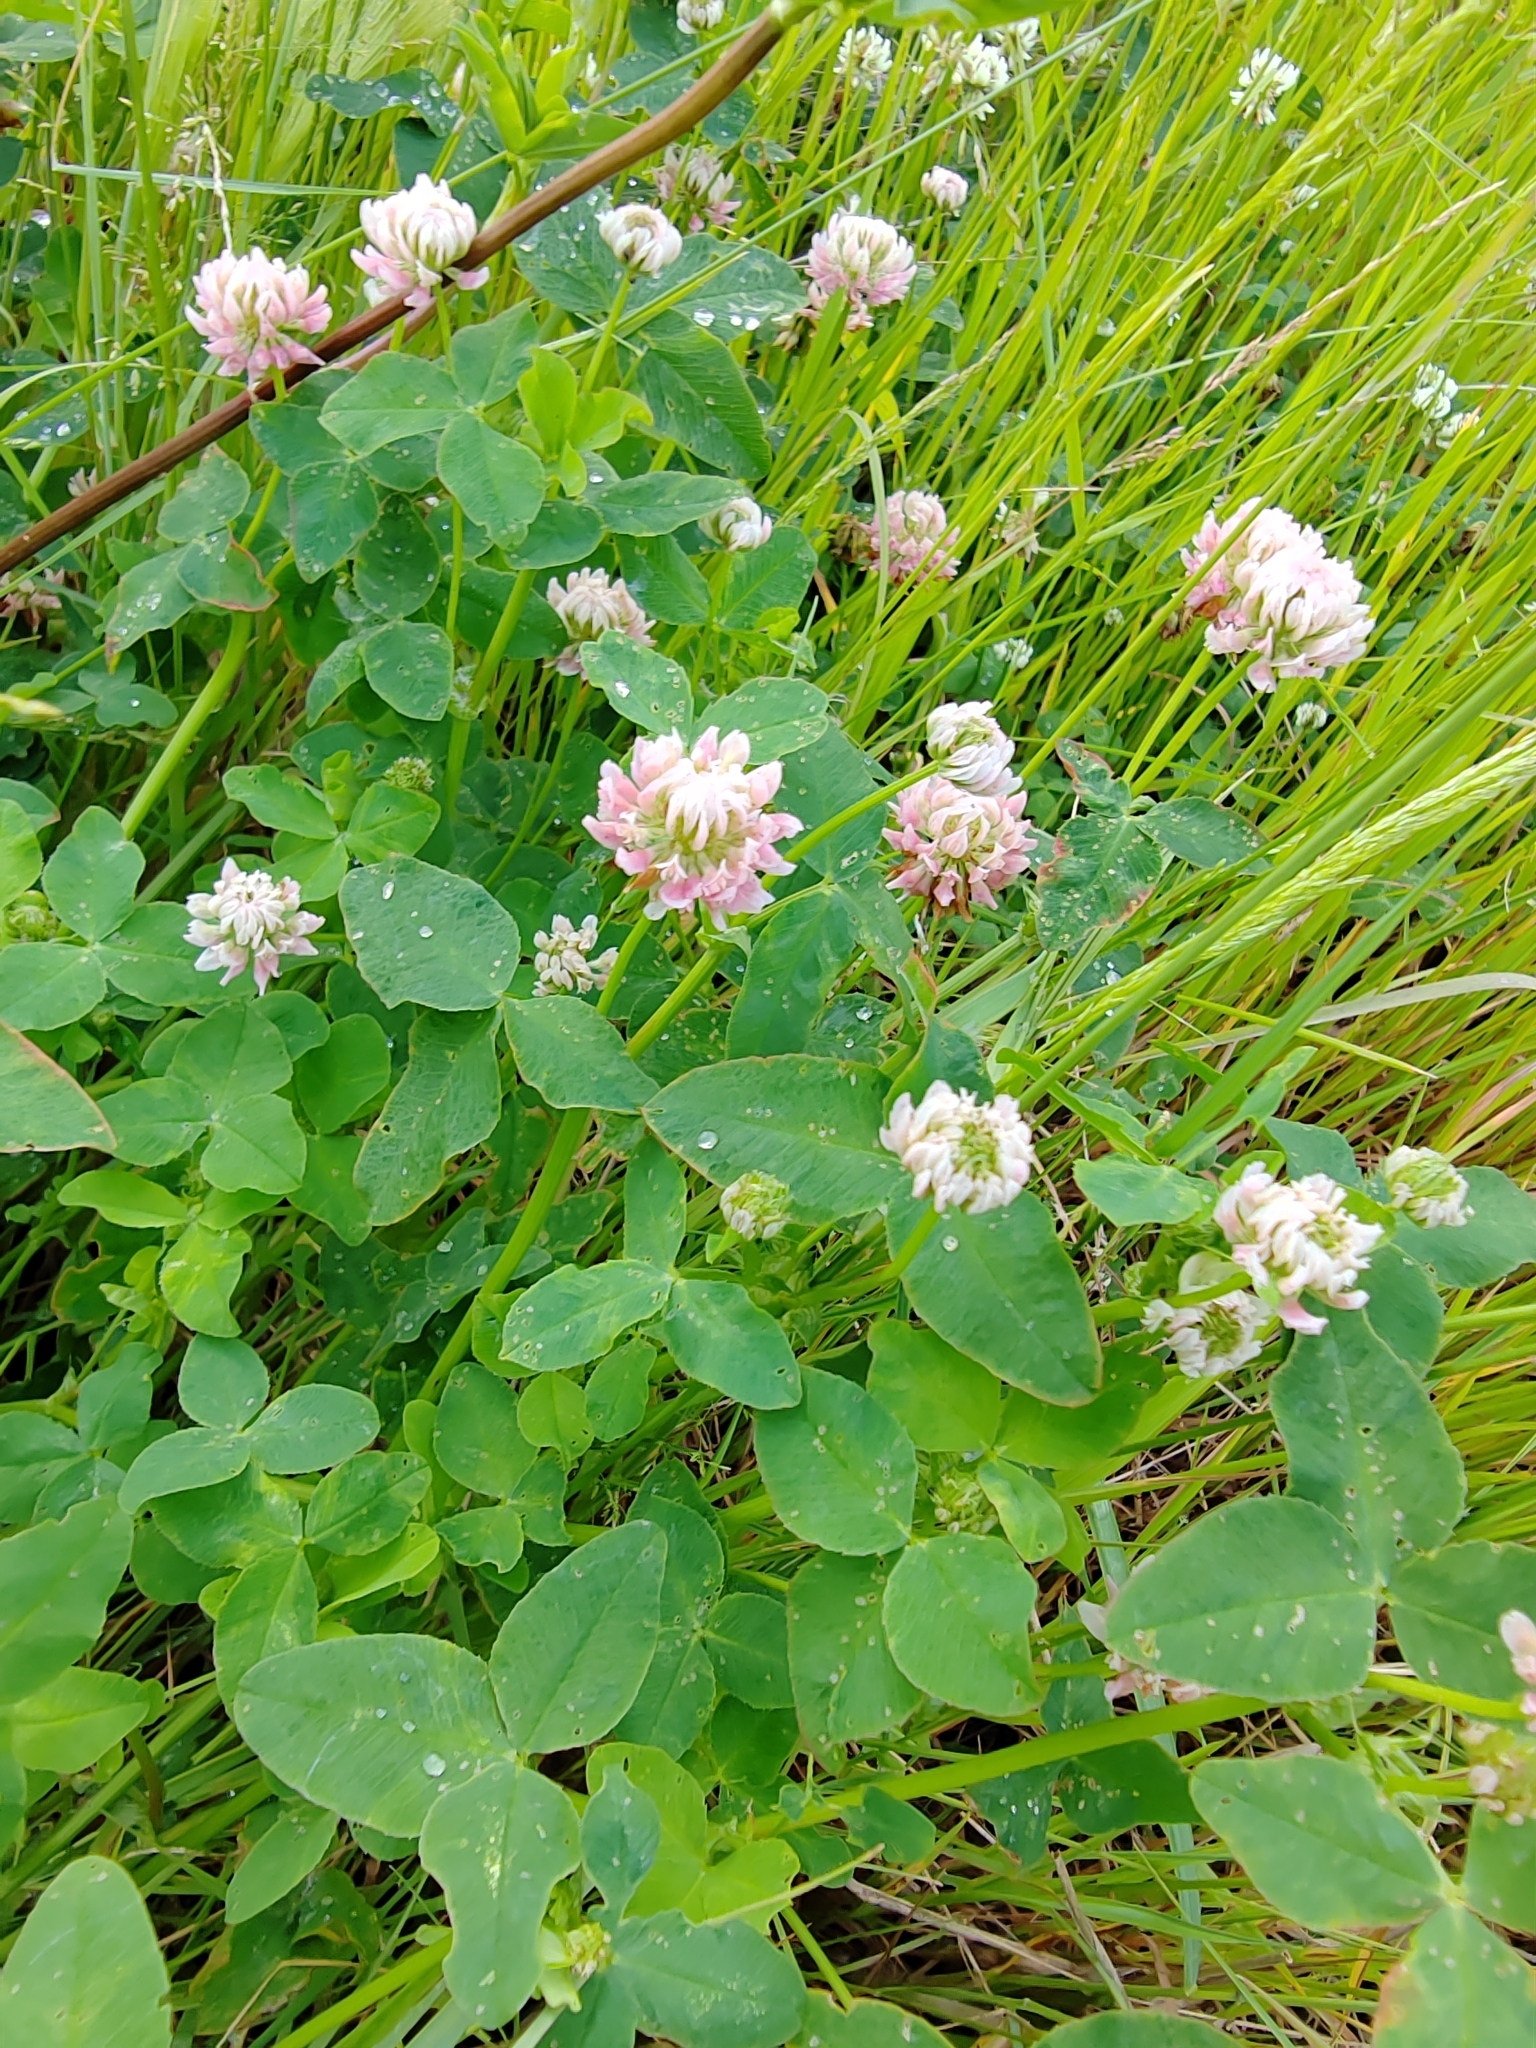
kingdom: Plantae
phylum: Tracheophyta
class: Magnoliopsida
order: Fabales
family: Fabaceae
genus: Trifolium
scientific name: Trifolium hybridum
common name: Alsike clover
